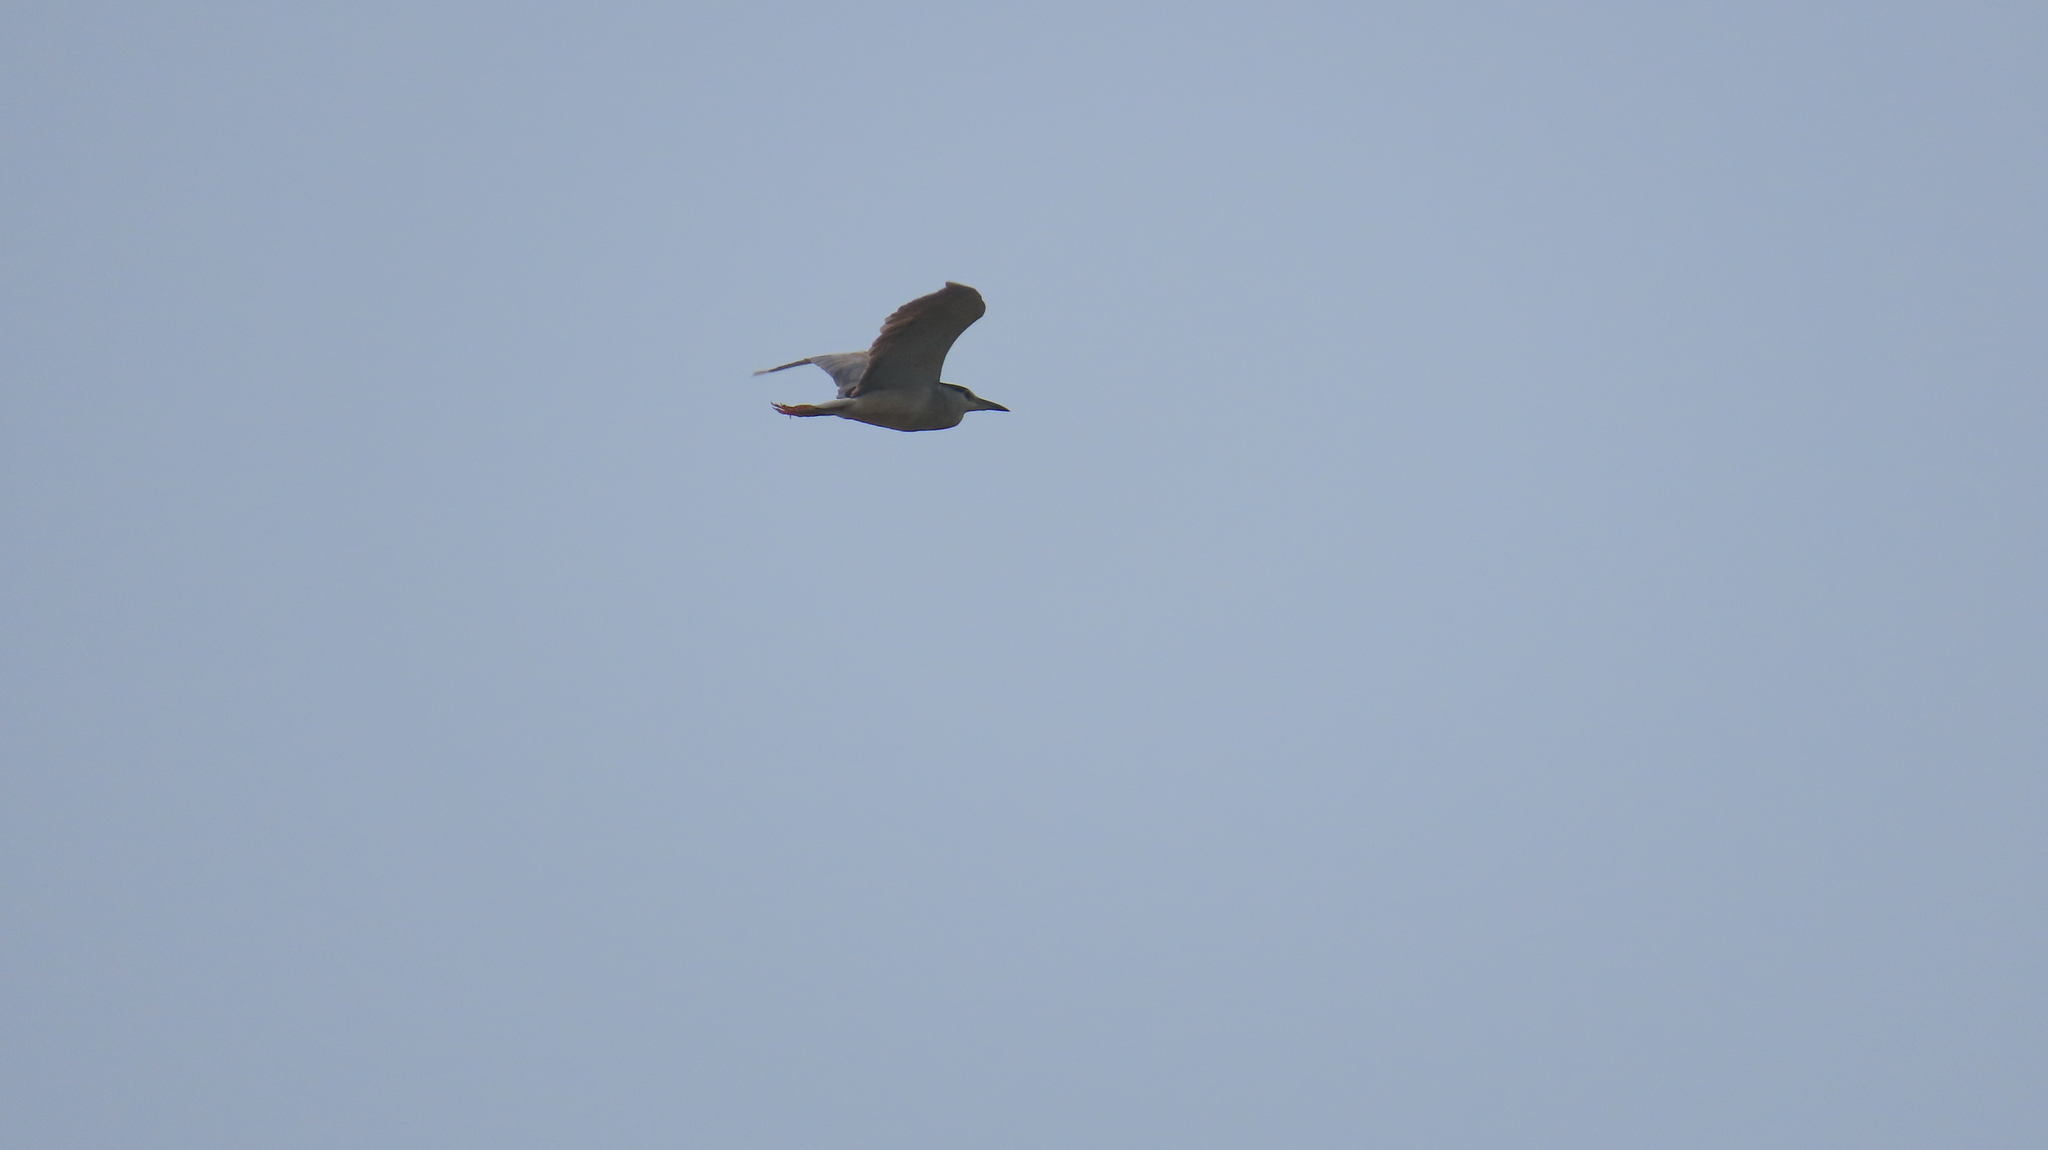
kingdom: Animalia
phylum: Chordata
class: Aves
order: Pelecaniformes
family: Ardeidae
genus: Nycticorax
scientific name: Nycticorax nycticorax
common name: Black-crowned night heron
